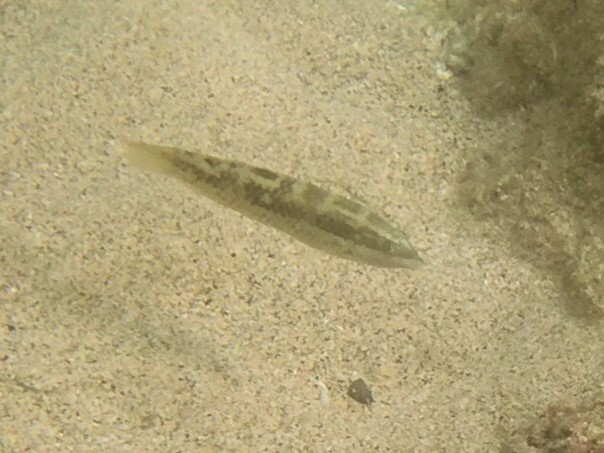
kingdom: Animalia
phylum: Chordata
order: Perciformes
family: Labridae
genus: Halichoeres
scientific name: Halichoeres nicholsi
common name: Spinster wrasse
